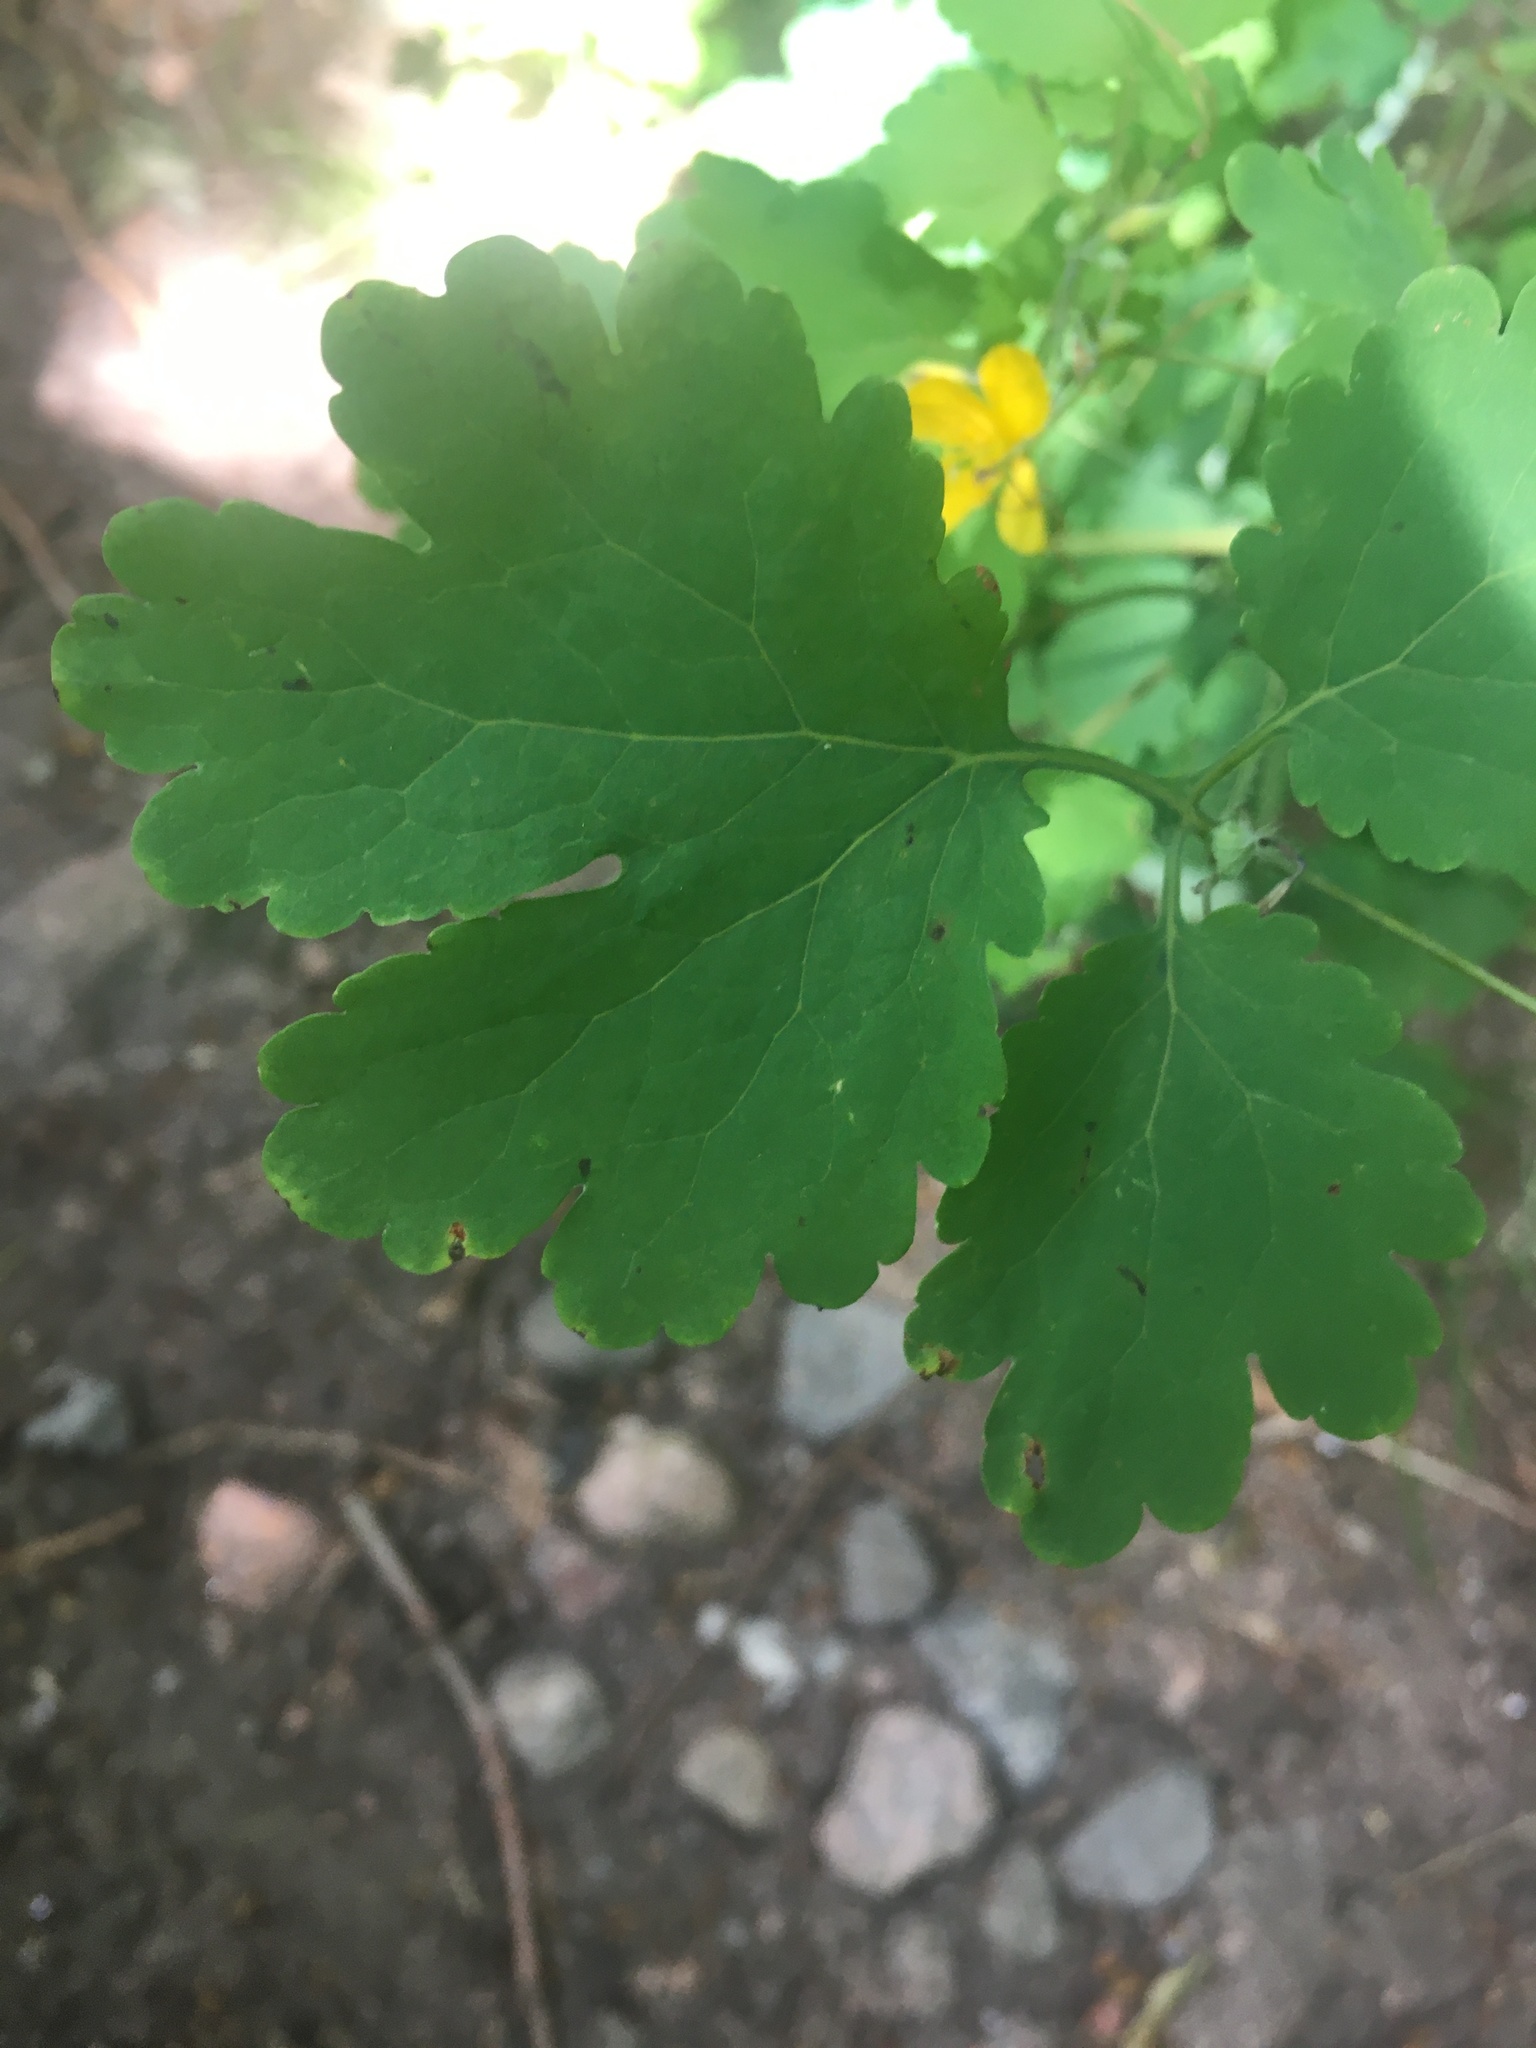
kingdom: Plantae
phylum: Tracheophyta
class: Magnoliopsida
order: Ranunculales
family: Papaveraceae
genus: Chelidonium
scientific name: Chelidonium majus
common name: Greater celandine
